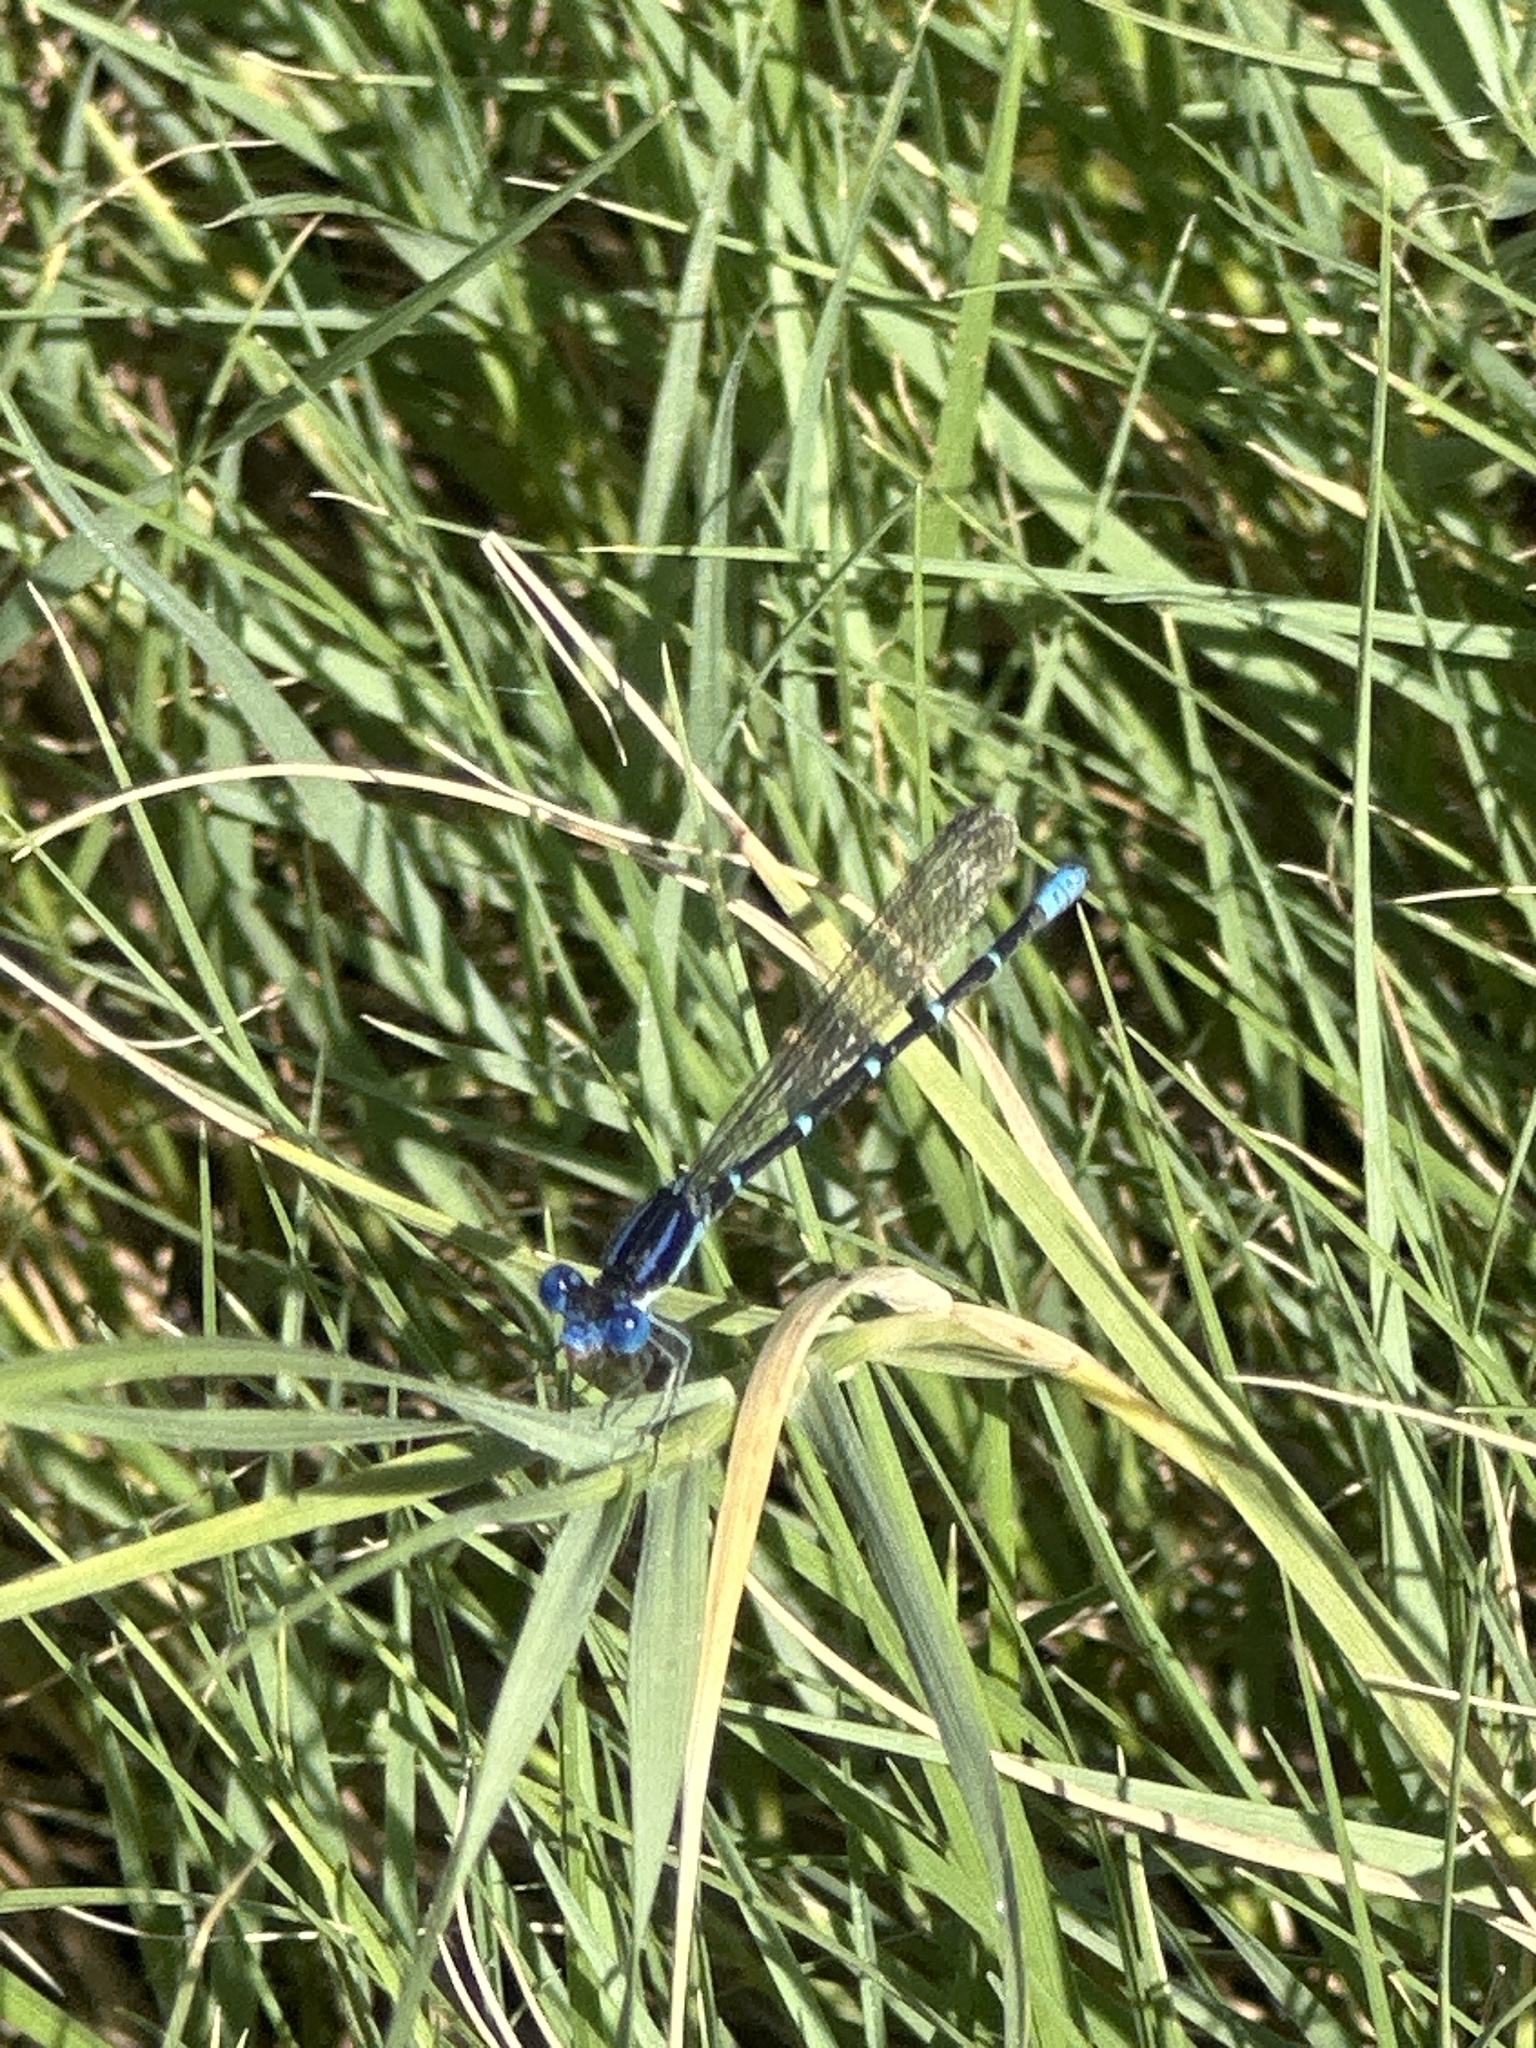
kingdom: Animalia
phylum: Arthropoda
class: Insecta
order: Odonata
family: Coenagrionidae
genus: Argia
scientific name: Argia sedula
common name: Blue-ringed dancer
